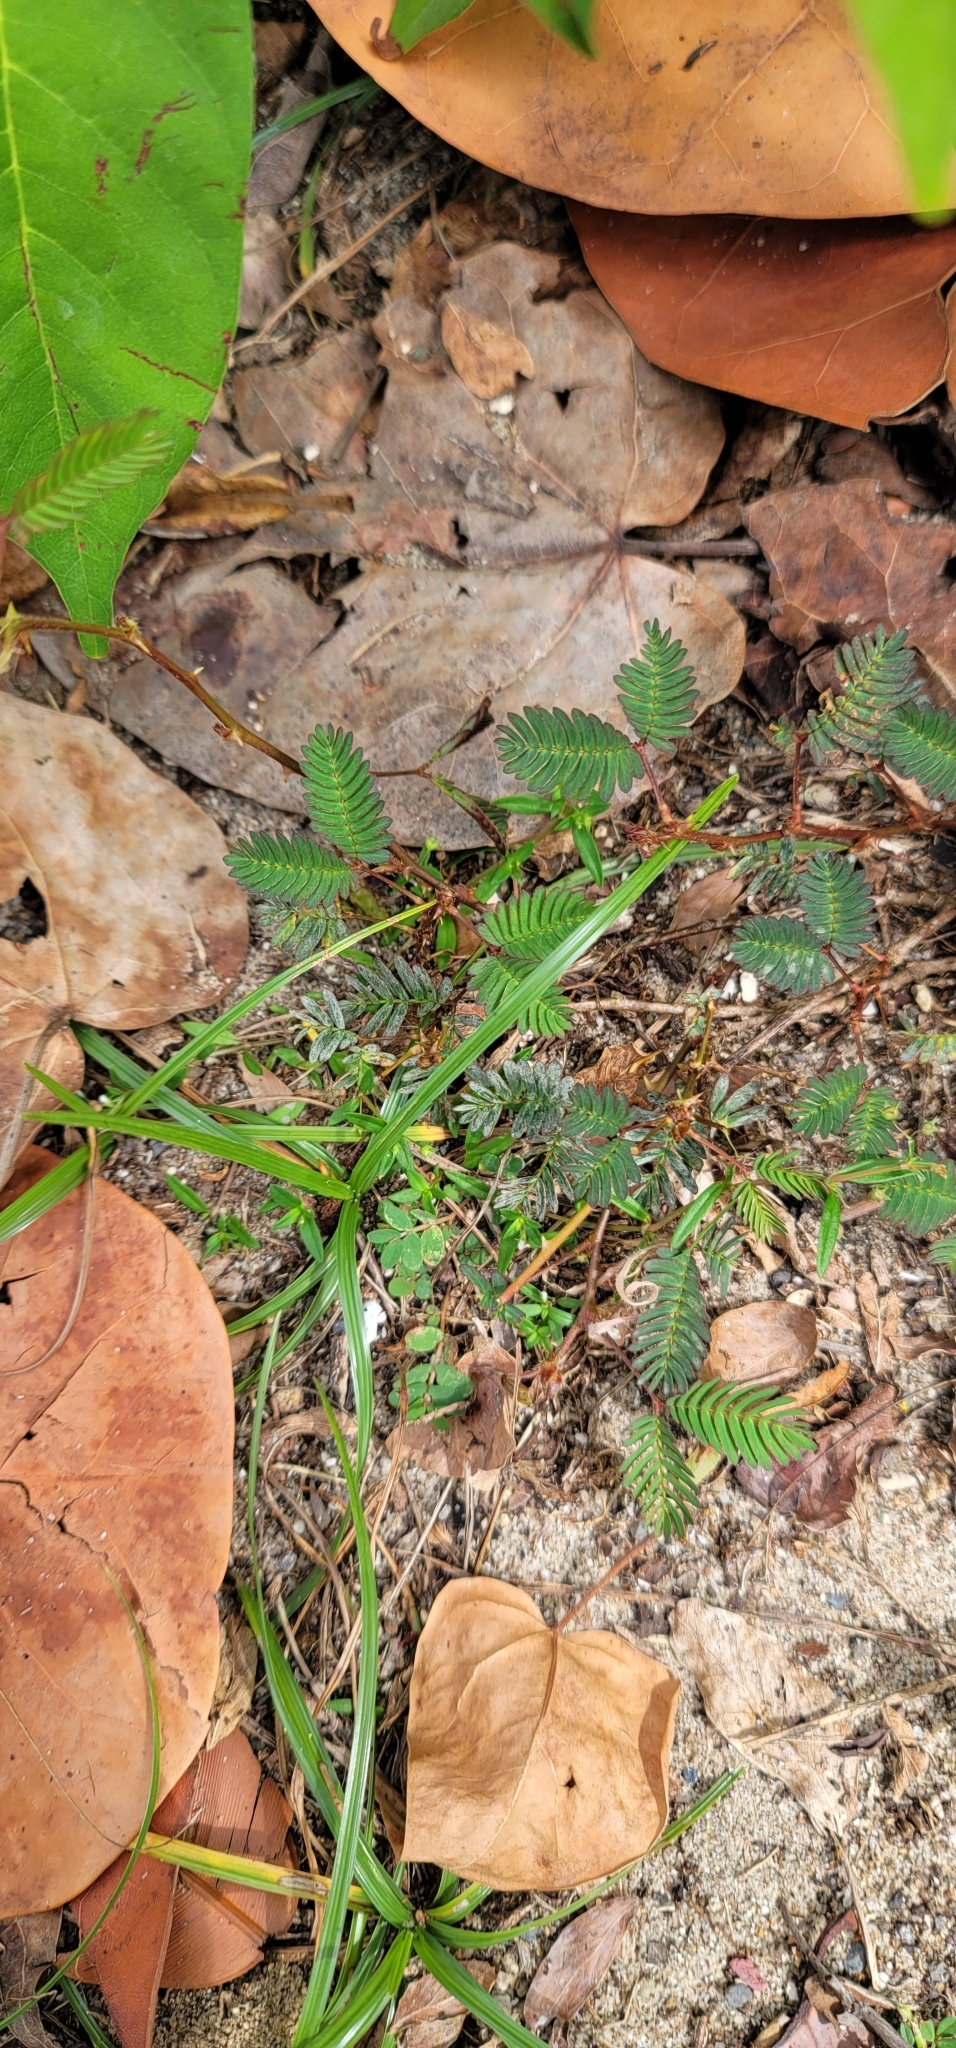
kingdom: Plantae
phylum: Tracheophyta
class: Magnoliopsida
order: Fabales
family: Fabaceae
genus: Mimosa
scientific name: Mimosa pudica
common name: Sensitive plant
